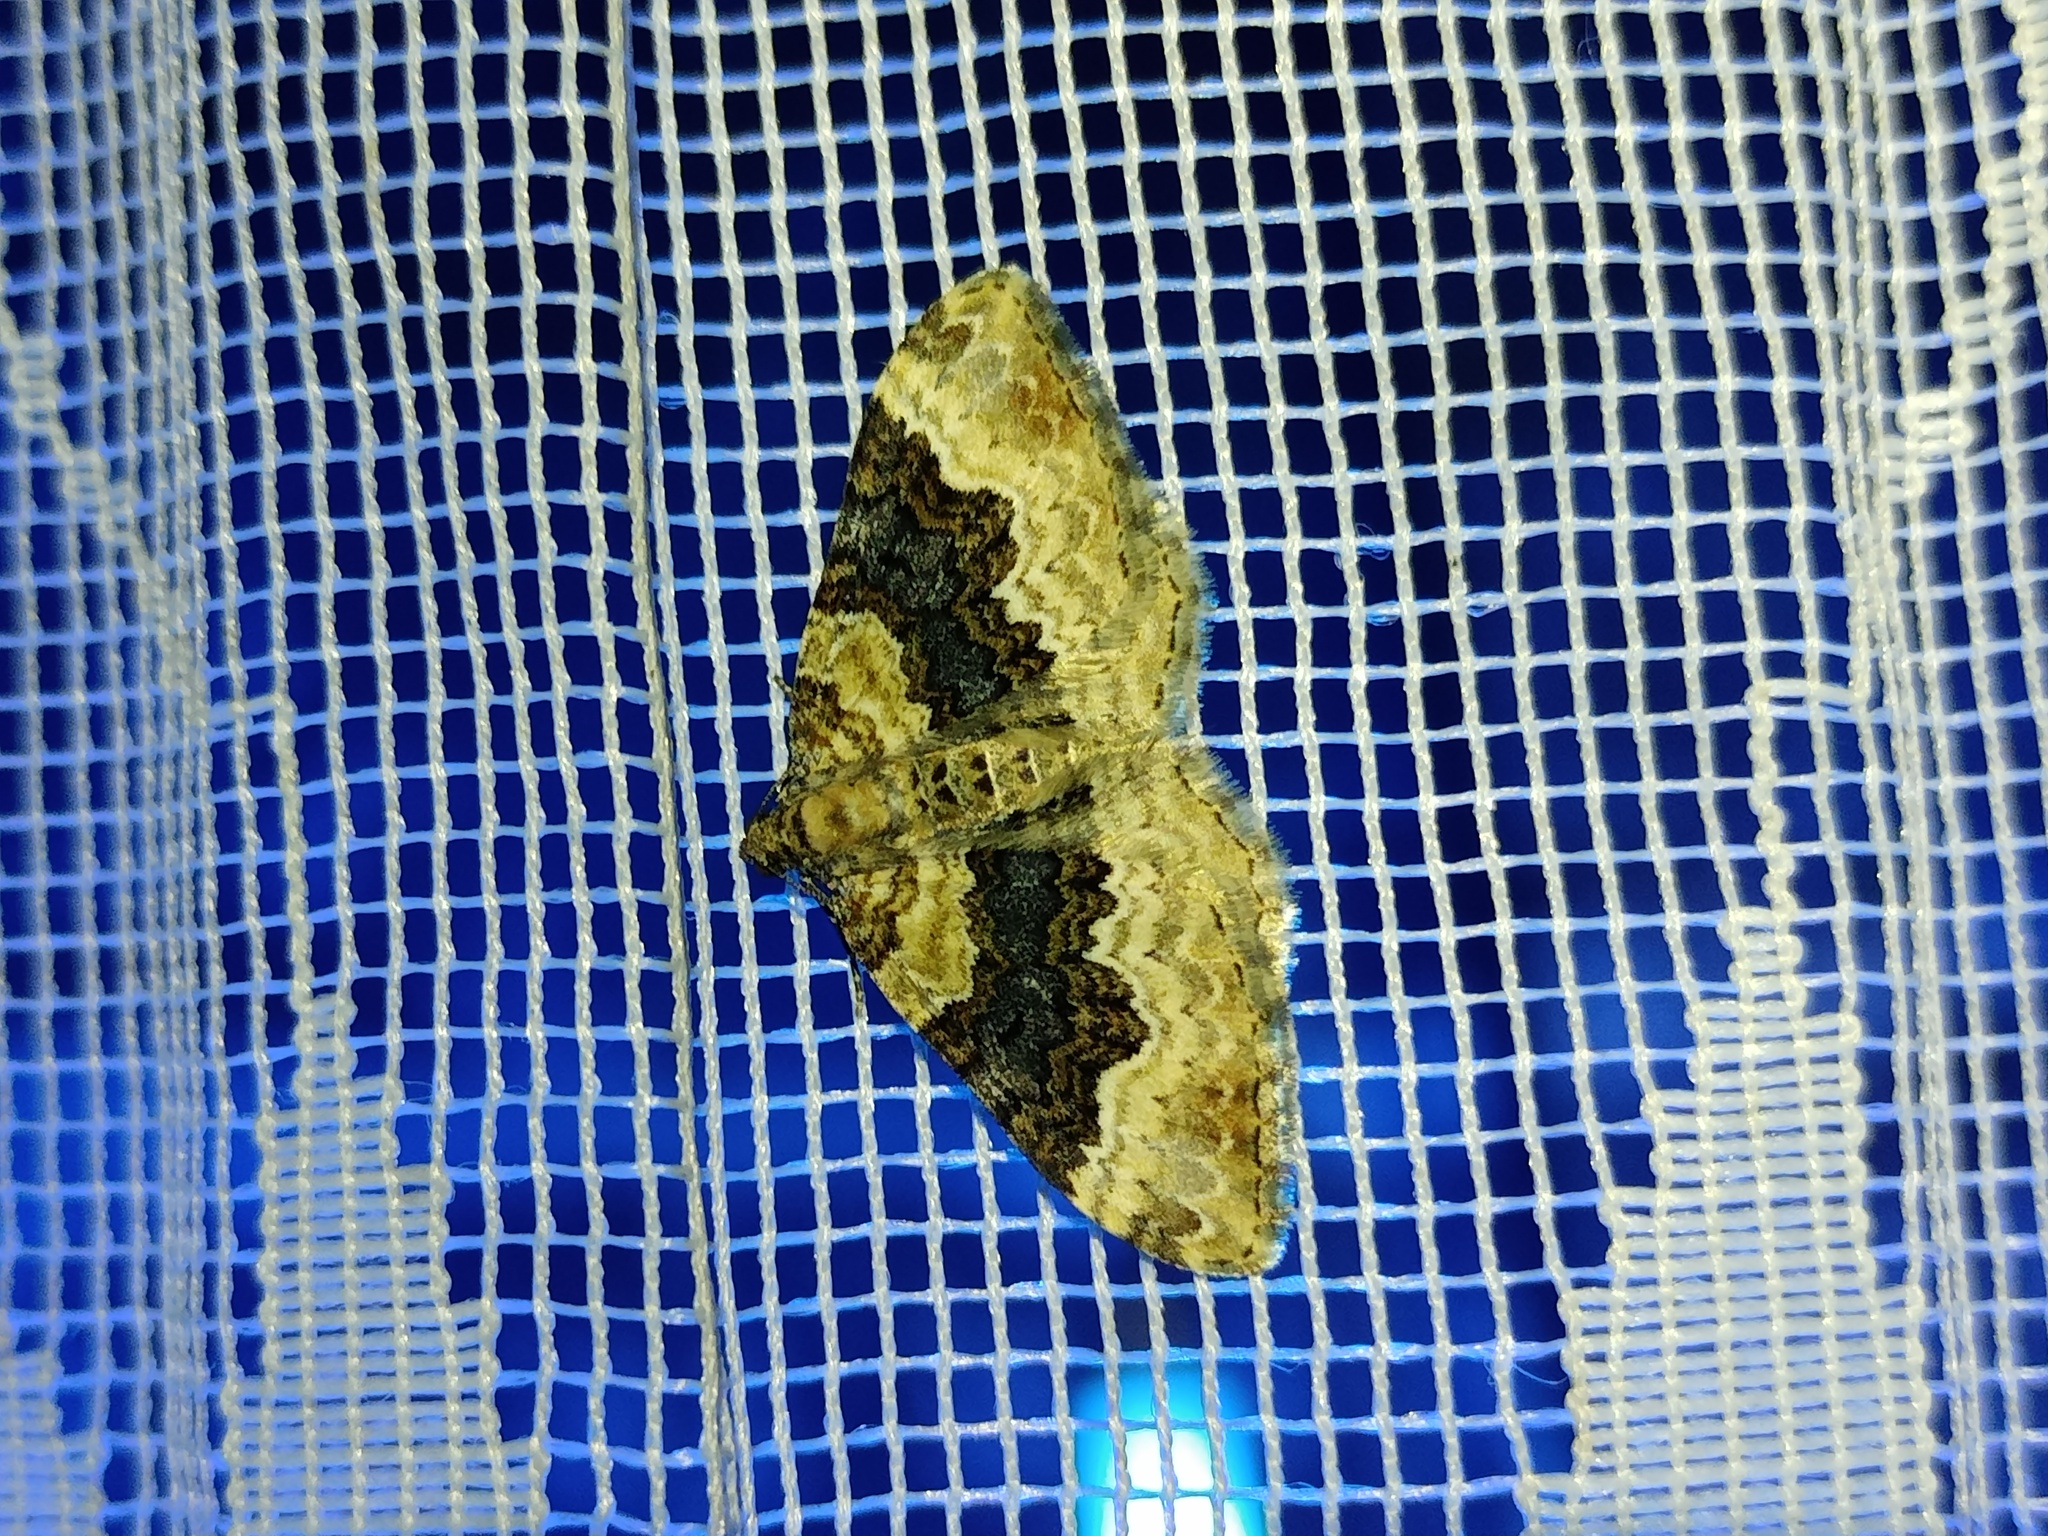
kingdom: Animalia
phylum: Arthropoda
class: Insecta
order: Lepidoptera
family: Geometridae
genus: Epirrhoe
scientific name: Epirrhoe galiata
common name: Galium carpet
